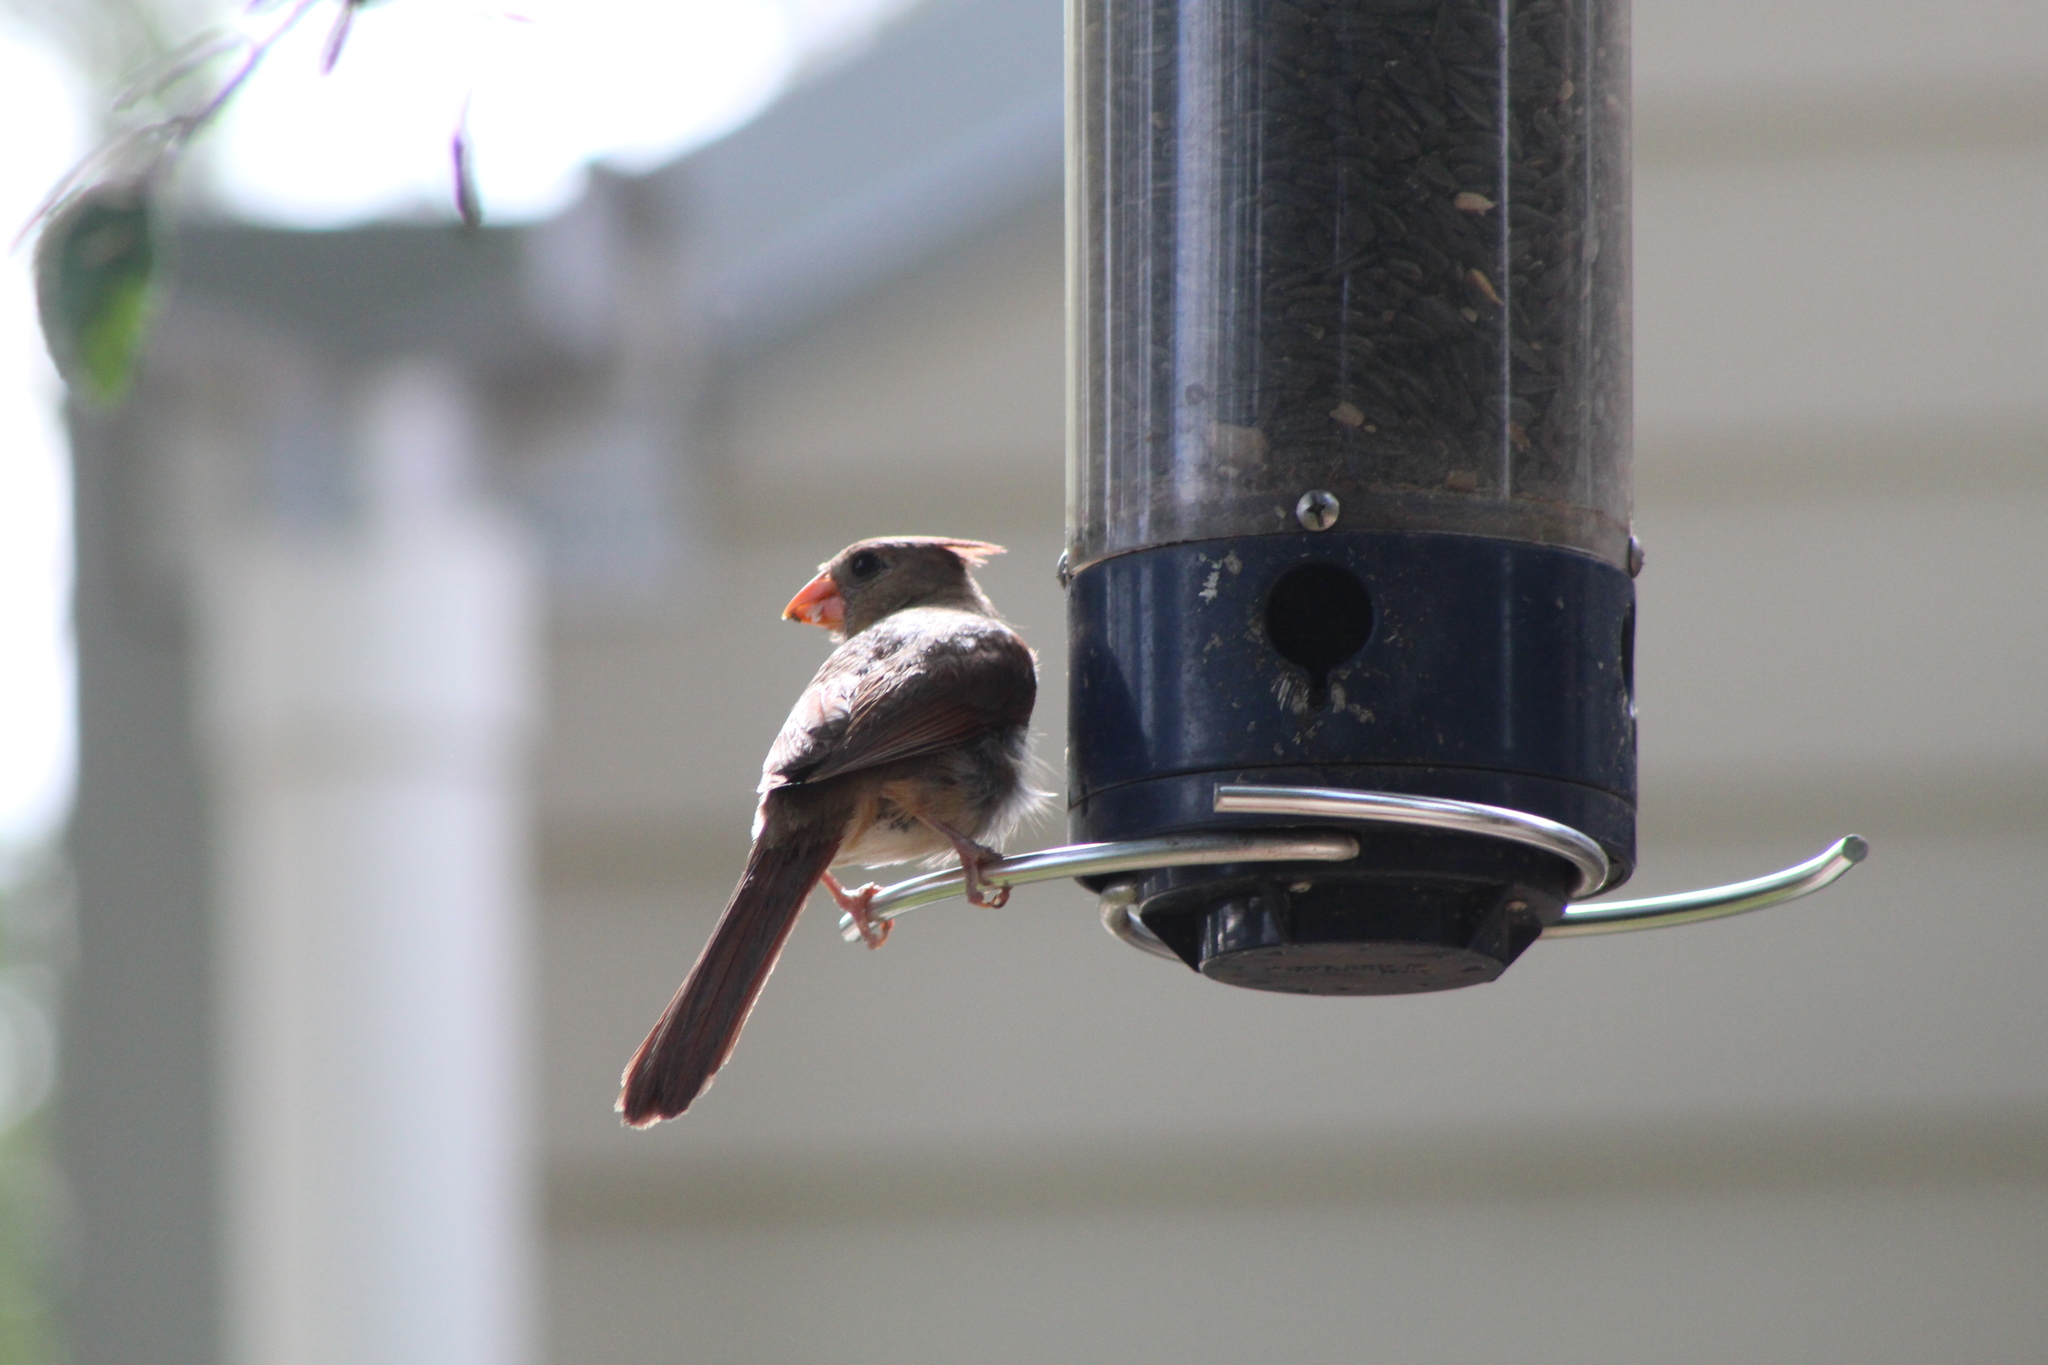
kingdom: Animalia
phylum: Chordata
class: Aves
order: Passeriformes
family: Cardinalidae
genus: Cardinalis
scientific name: Cardinalis cardinalis
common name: Northern cardinal
